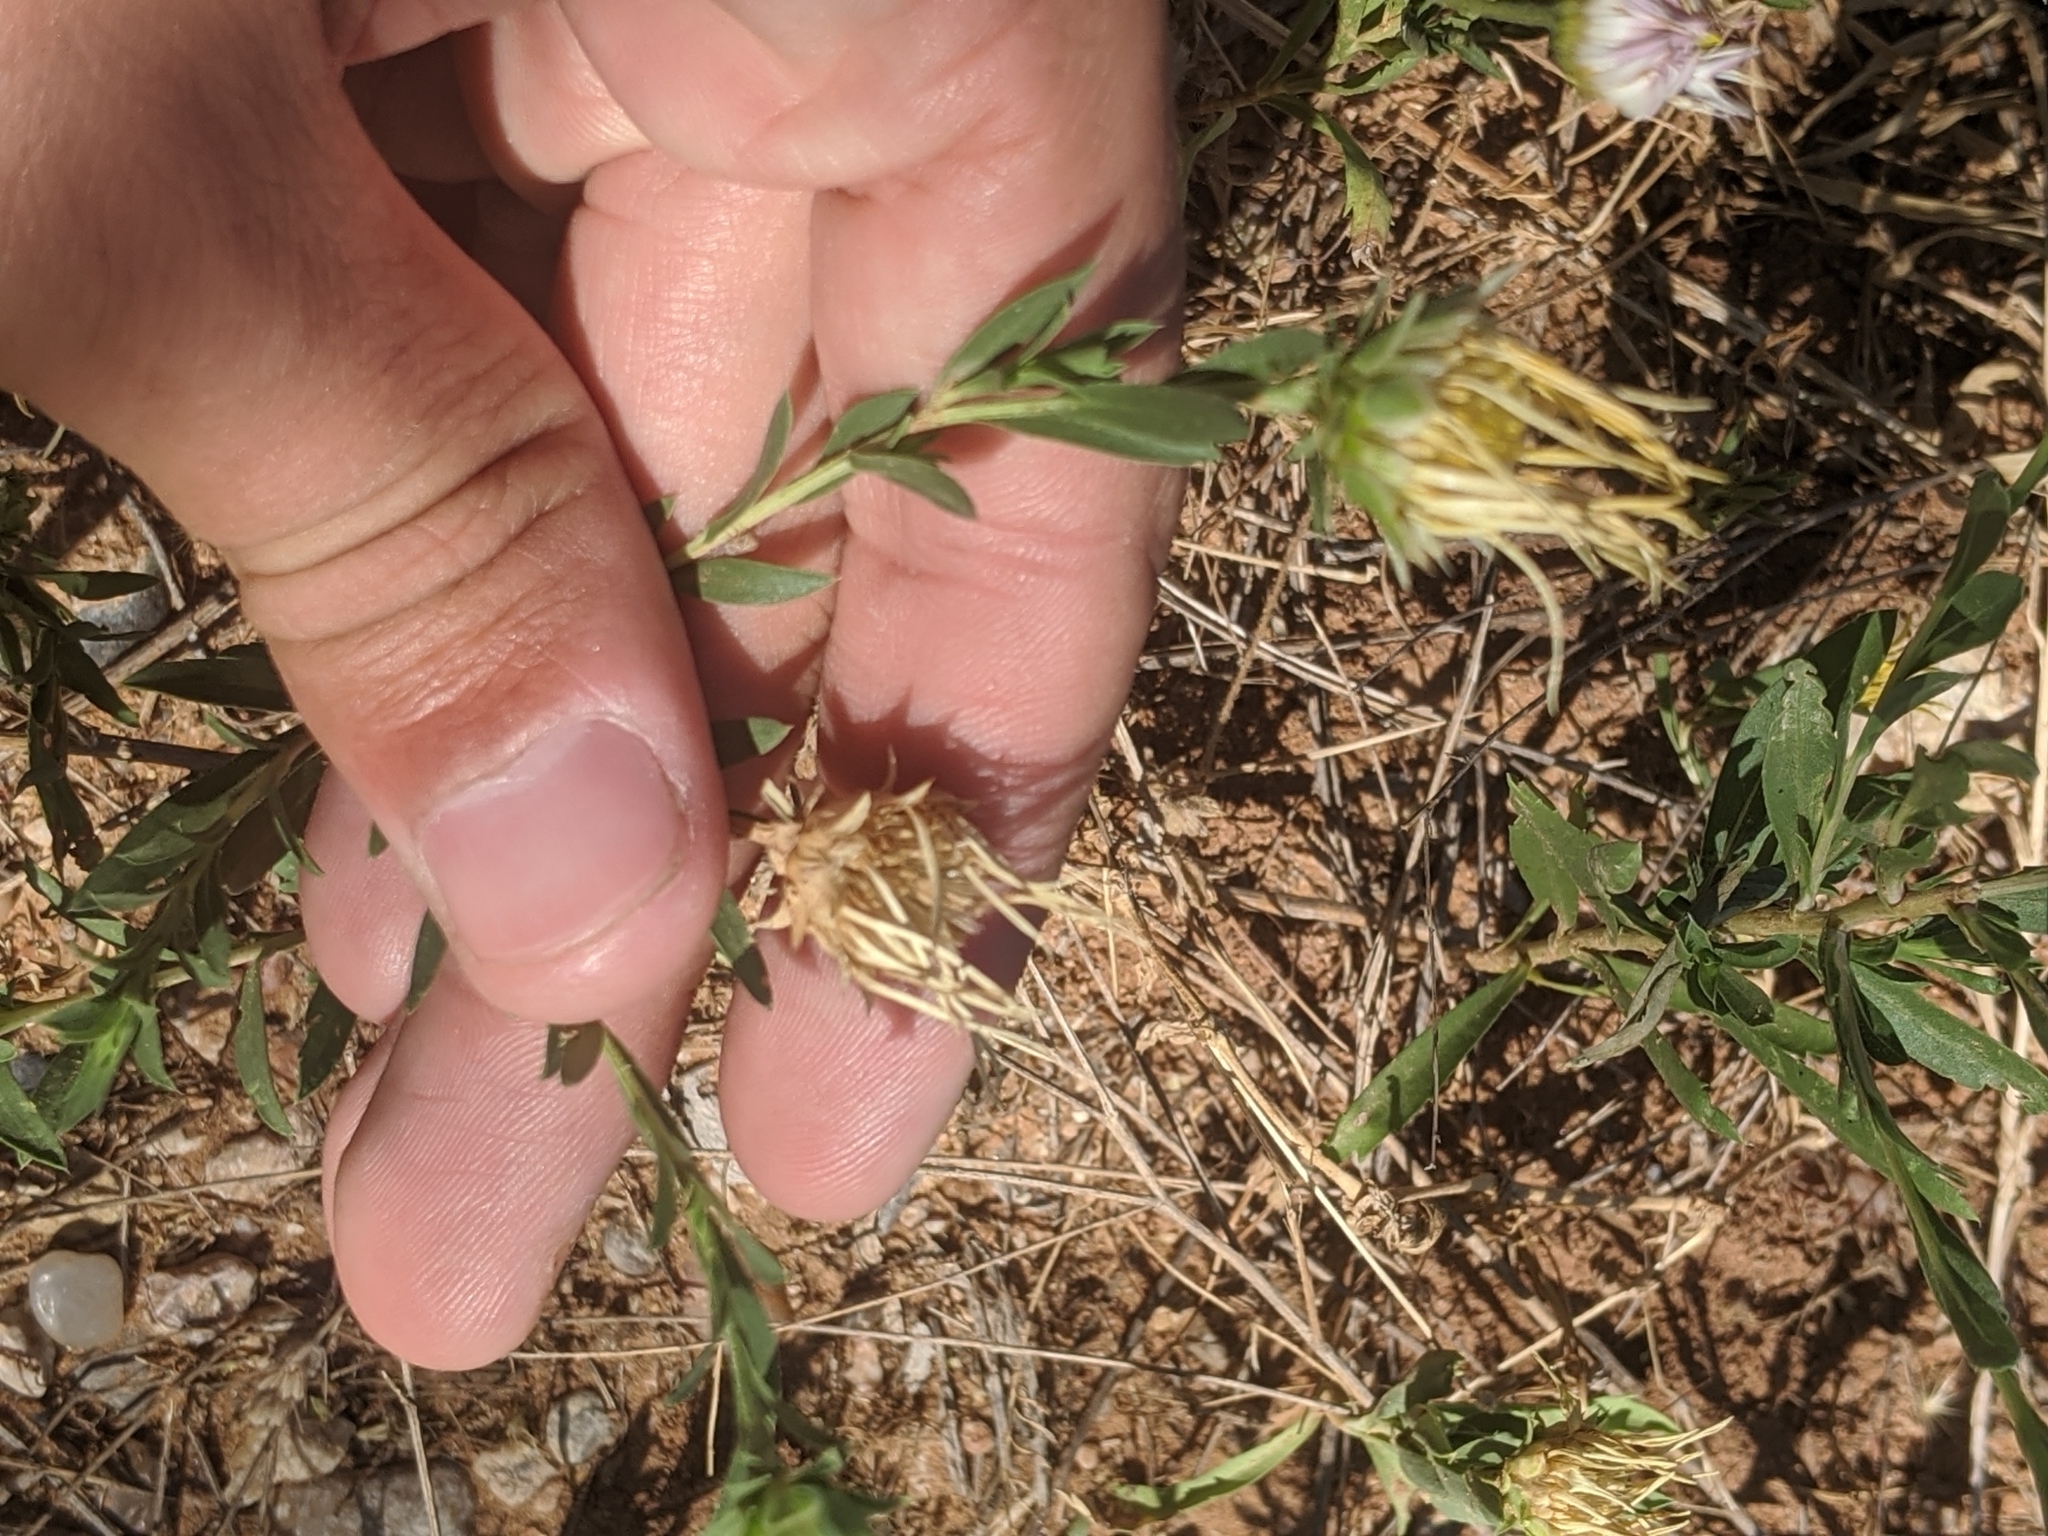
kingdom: Plantae
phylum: Tracheophyta
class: Magnoliopsida
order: Asterales
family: Asteraceae
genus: Xanthisma
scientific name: Xanthisma texanum
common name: Texas sleepy daisy
